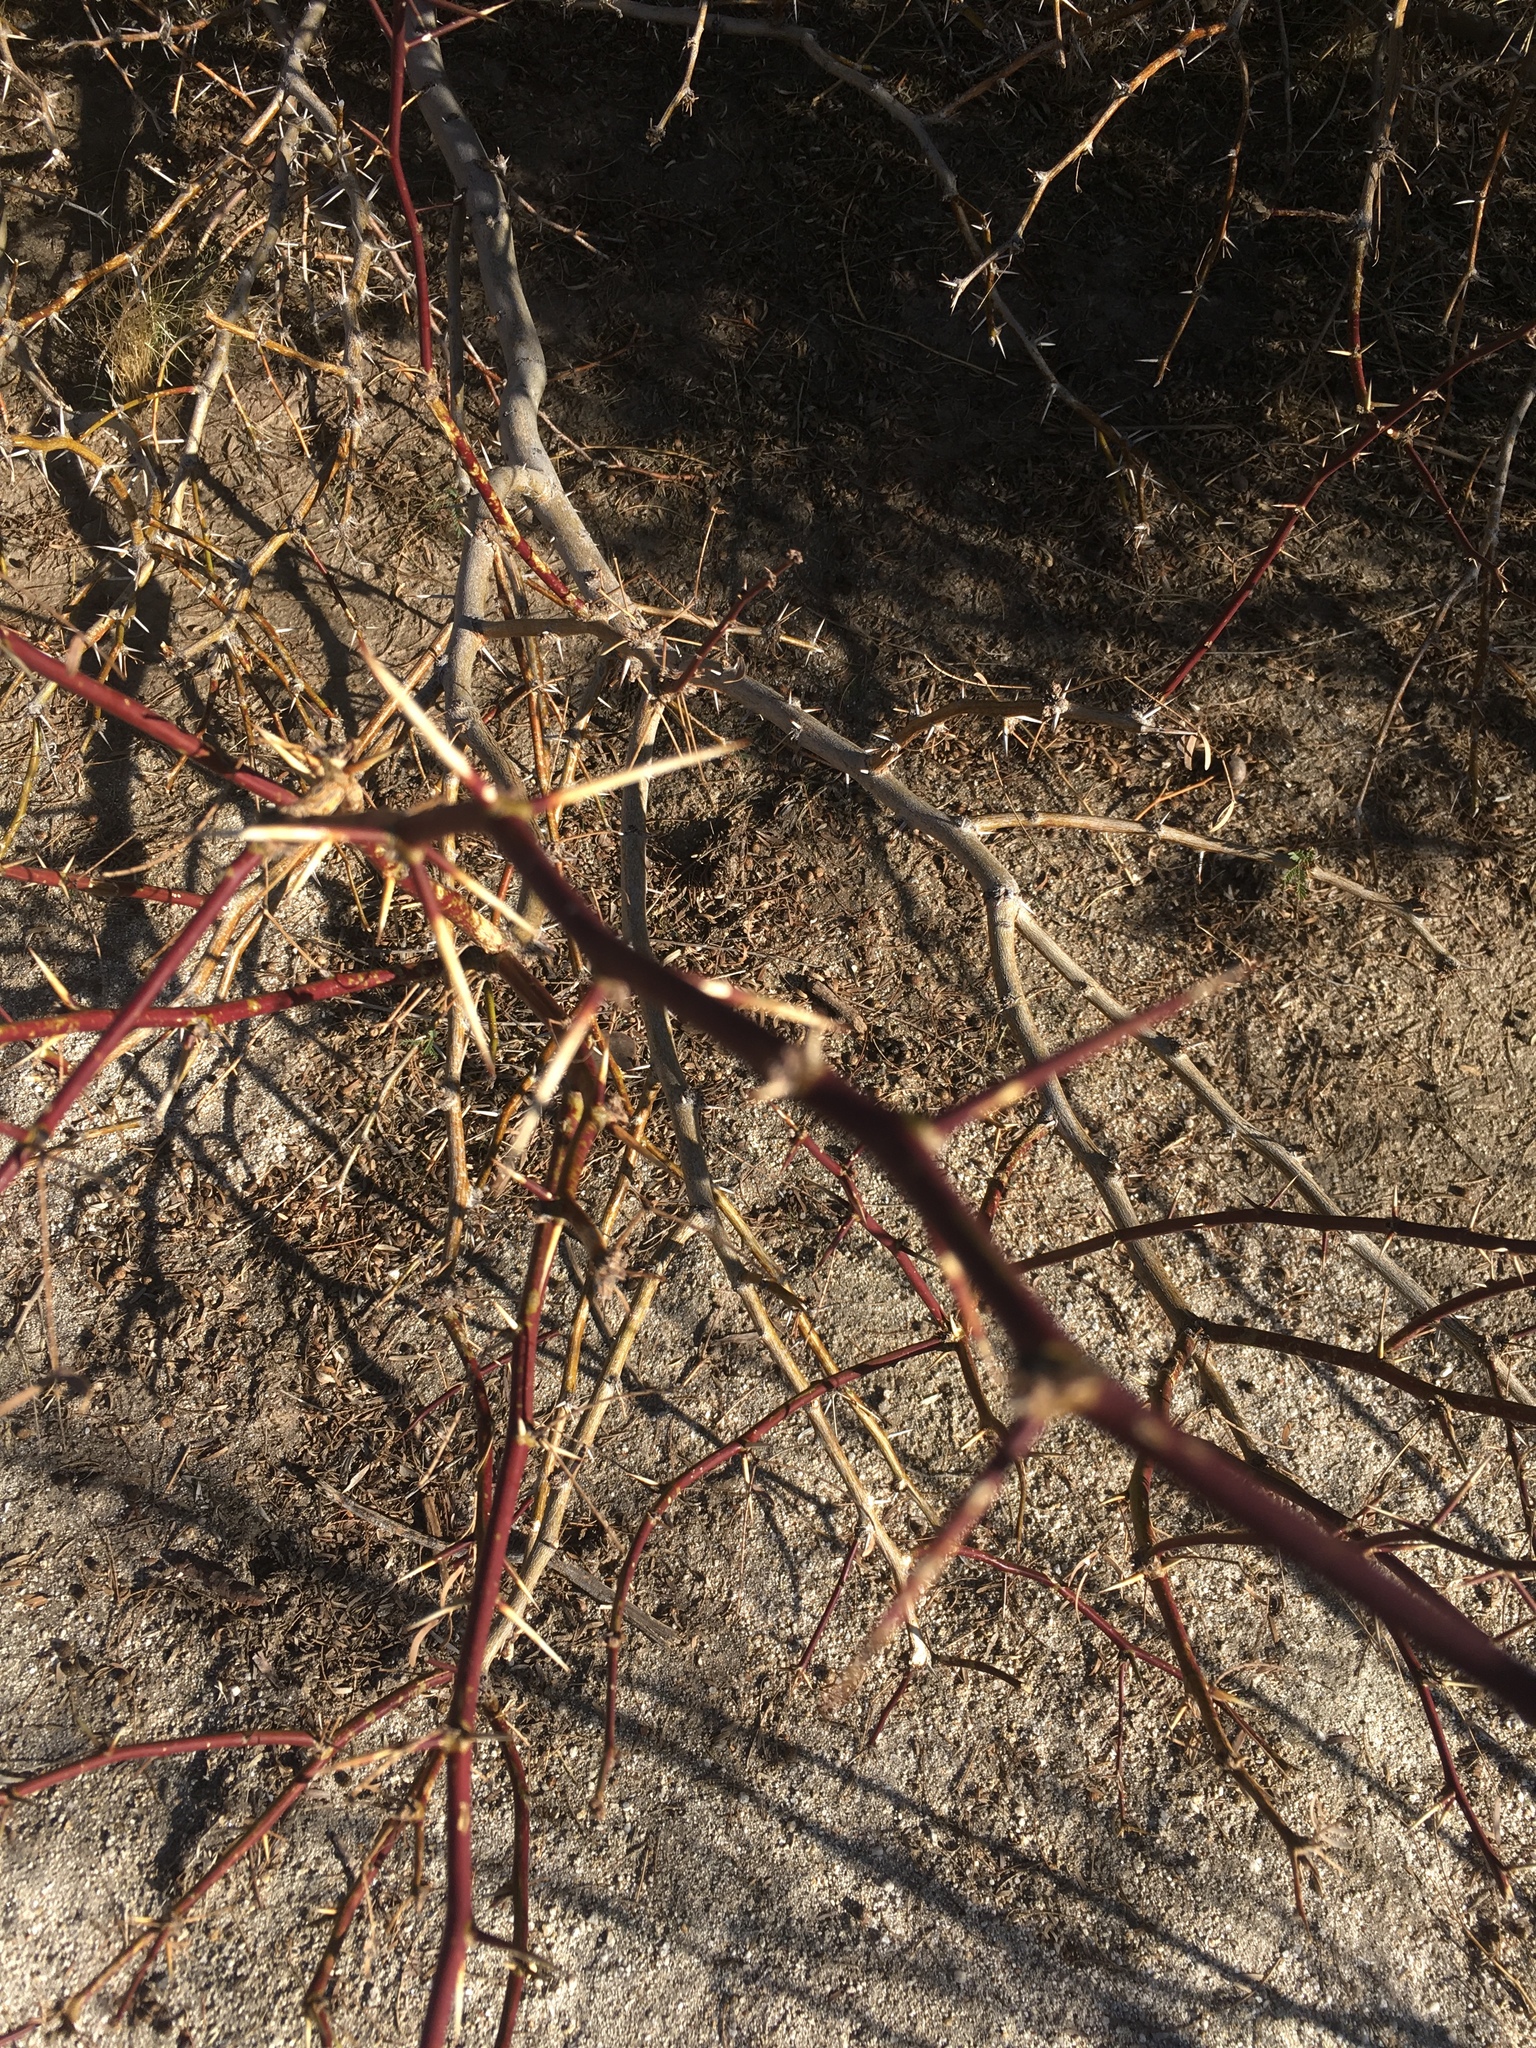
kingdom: Plantae
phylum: Tracheophyta
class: Magnoliopsida
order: Fabales
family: Fabaceae
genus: Prosopis
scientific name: Prosopis pubescens
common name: Screw-bean
